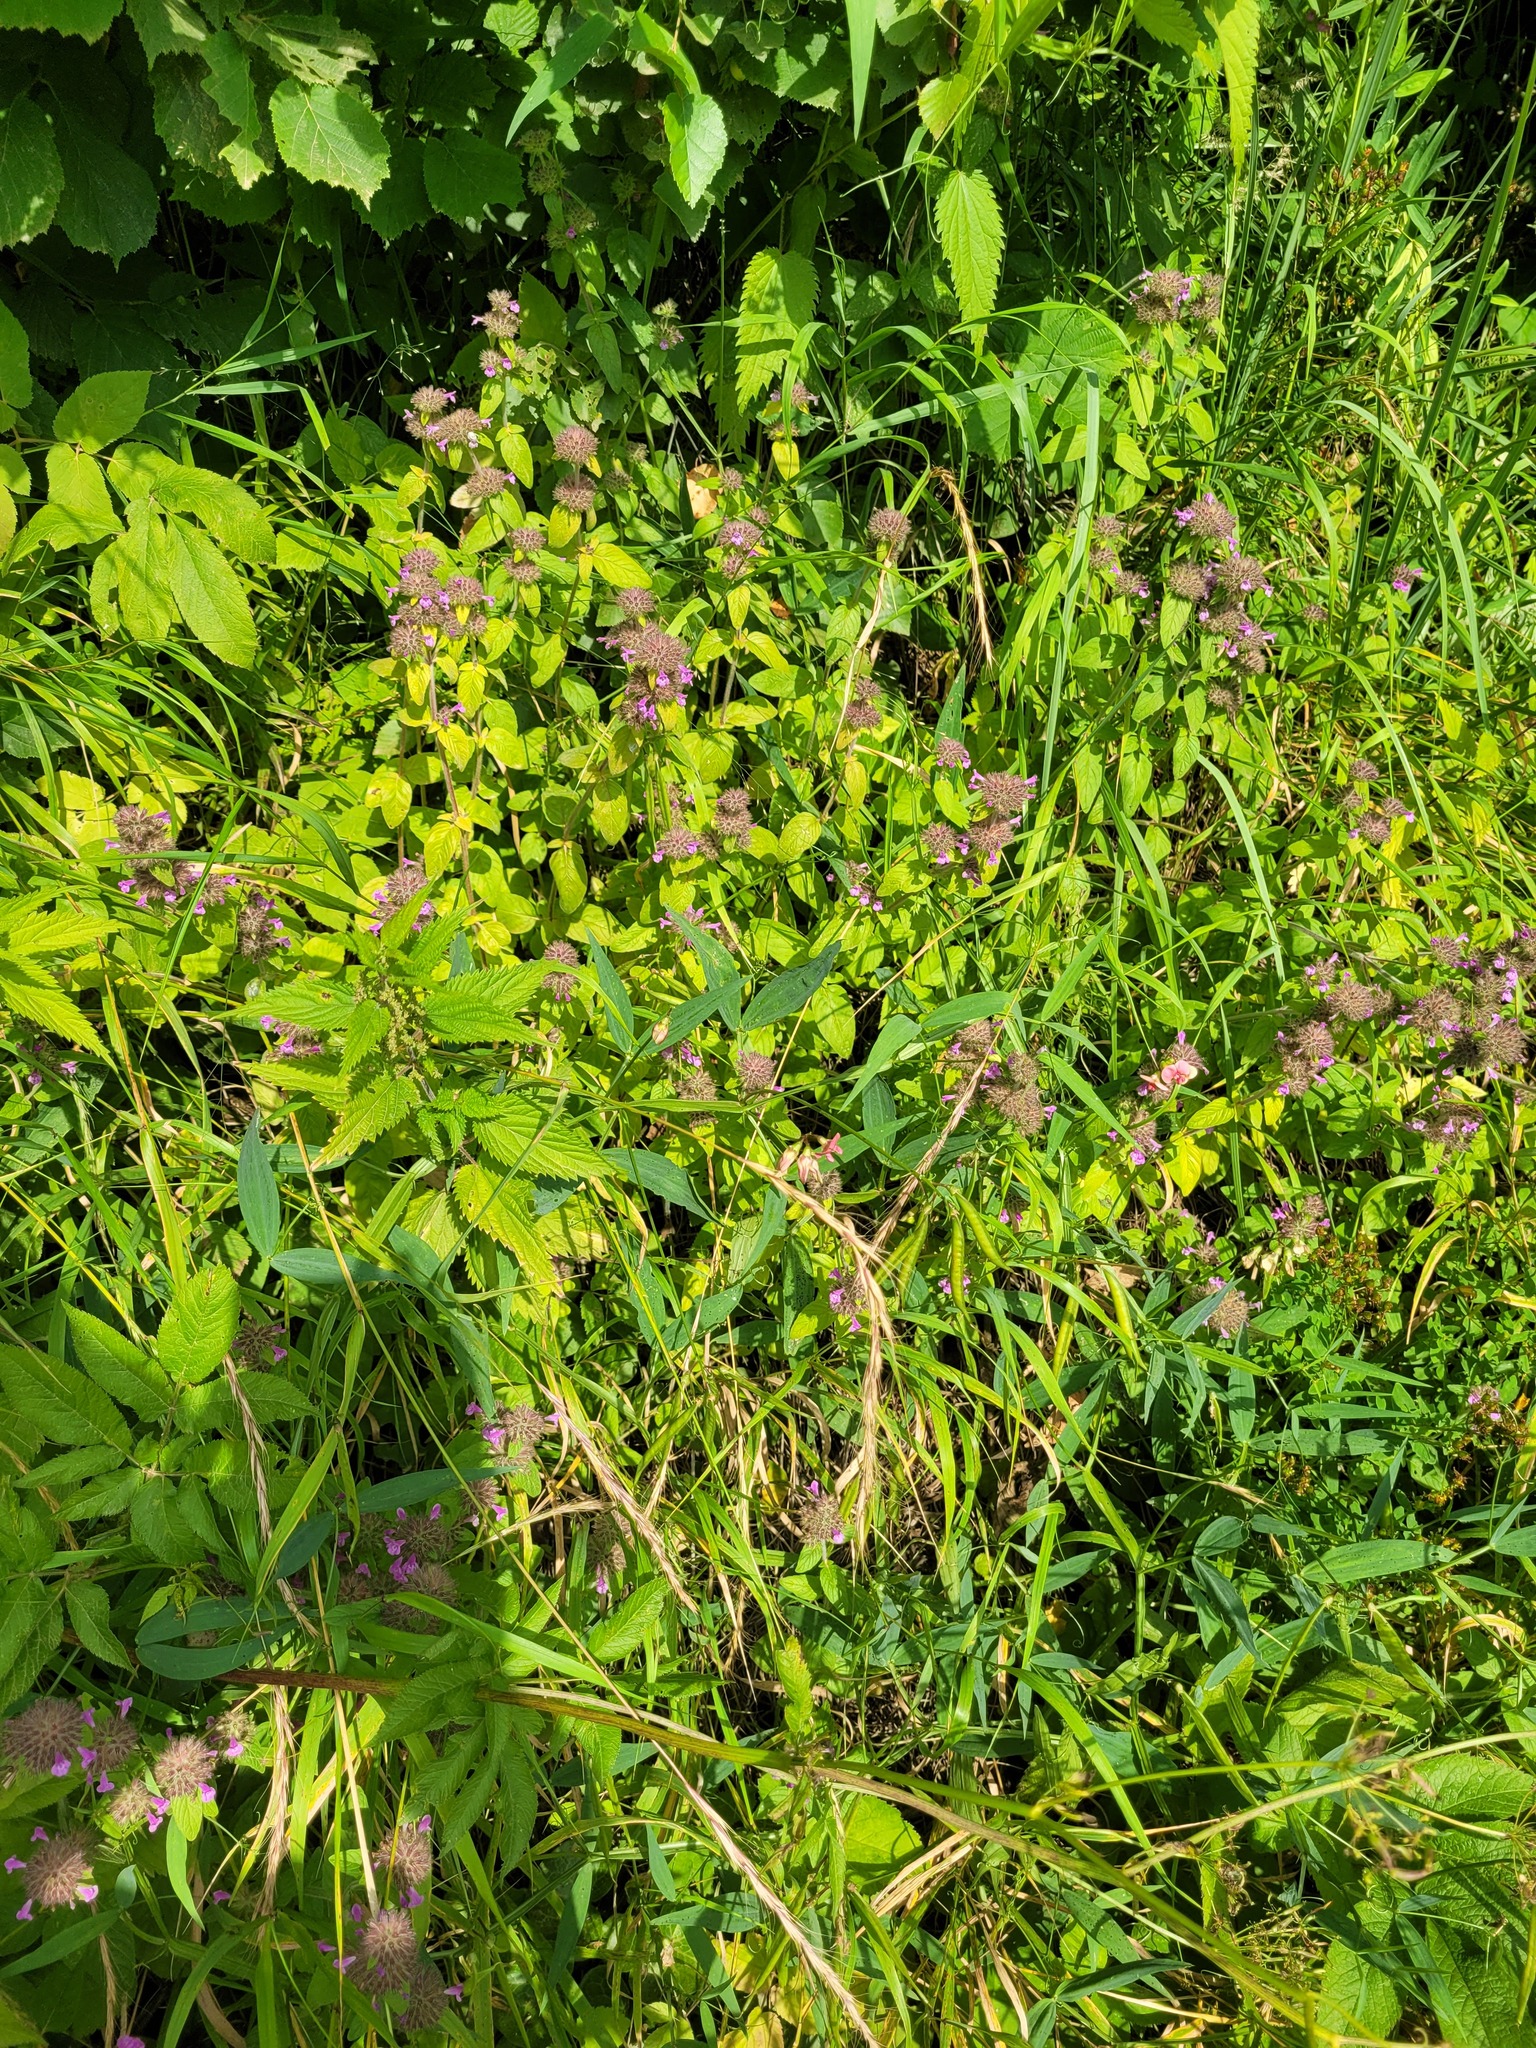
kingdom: Plantae
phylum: Tracheophyta
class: Magnoliopsida
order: Fabales
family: Fabaceae
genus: Lathyrus
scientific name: Lathyrus sylvestris
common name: Flat pea
